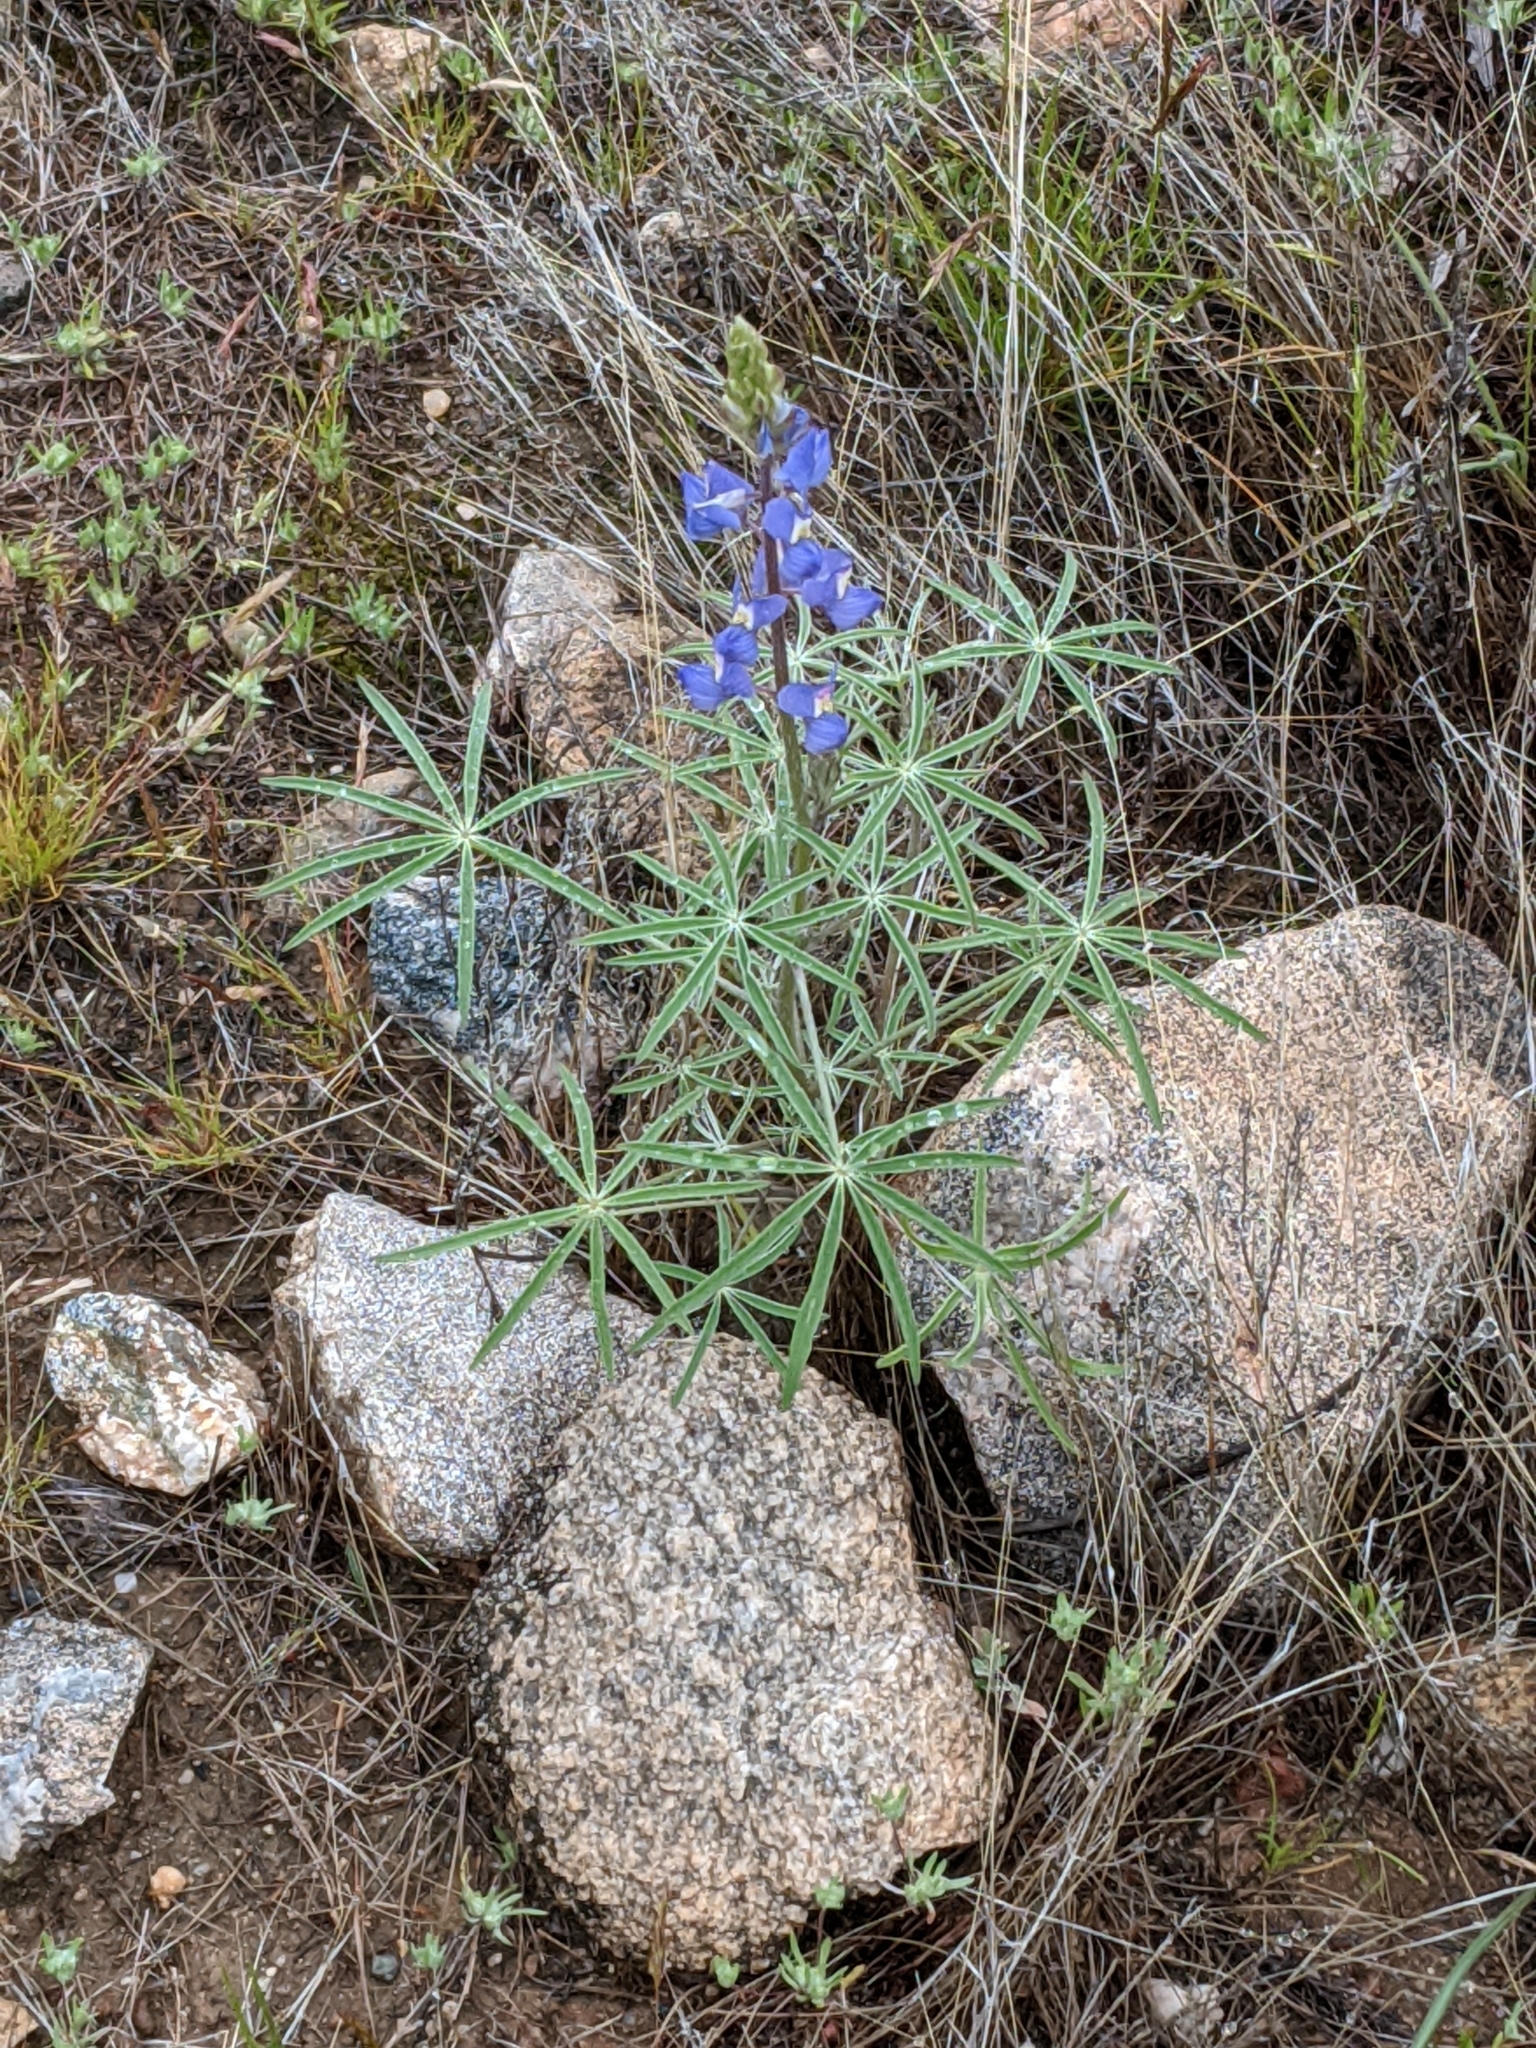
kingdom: Plantae
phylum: Tracheophyta
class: Magnoliopsida
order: Fabales
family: Fabaceae
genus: Lupinus
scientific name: Lupinus sparsiflorus
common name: Coulter's lupine
